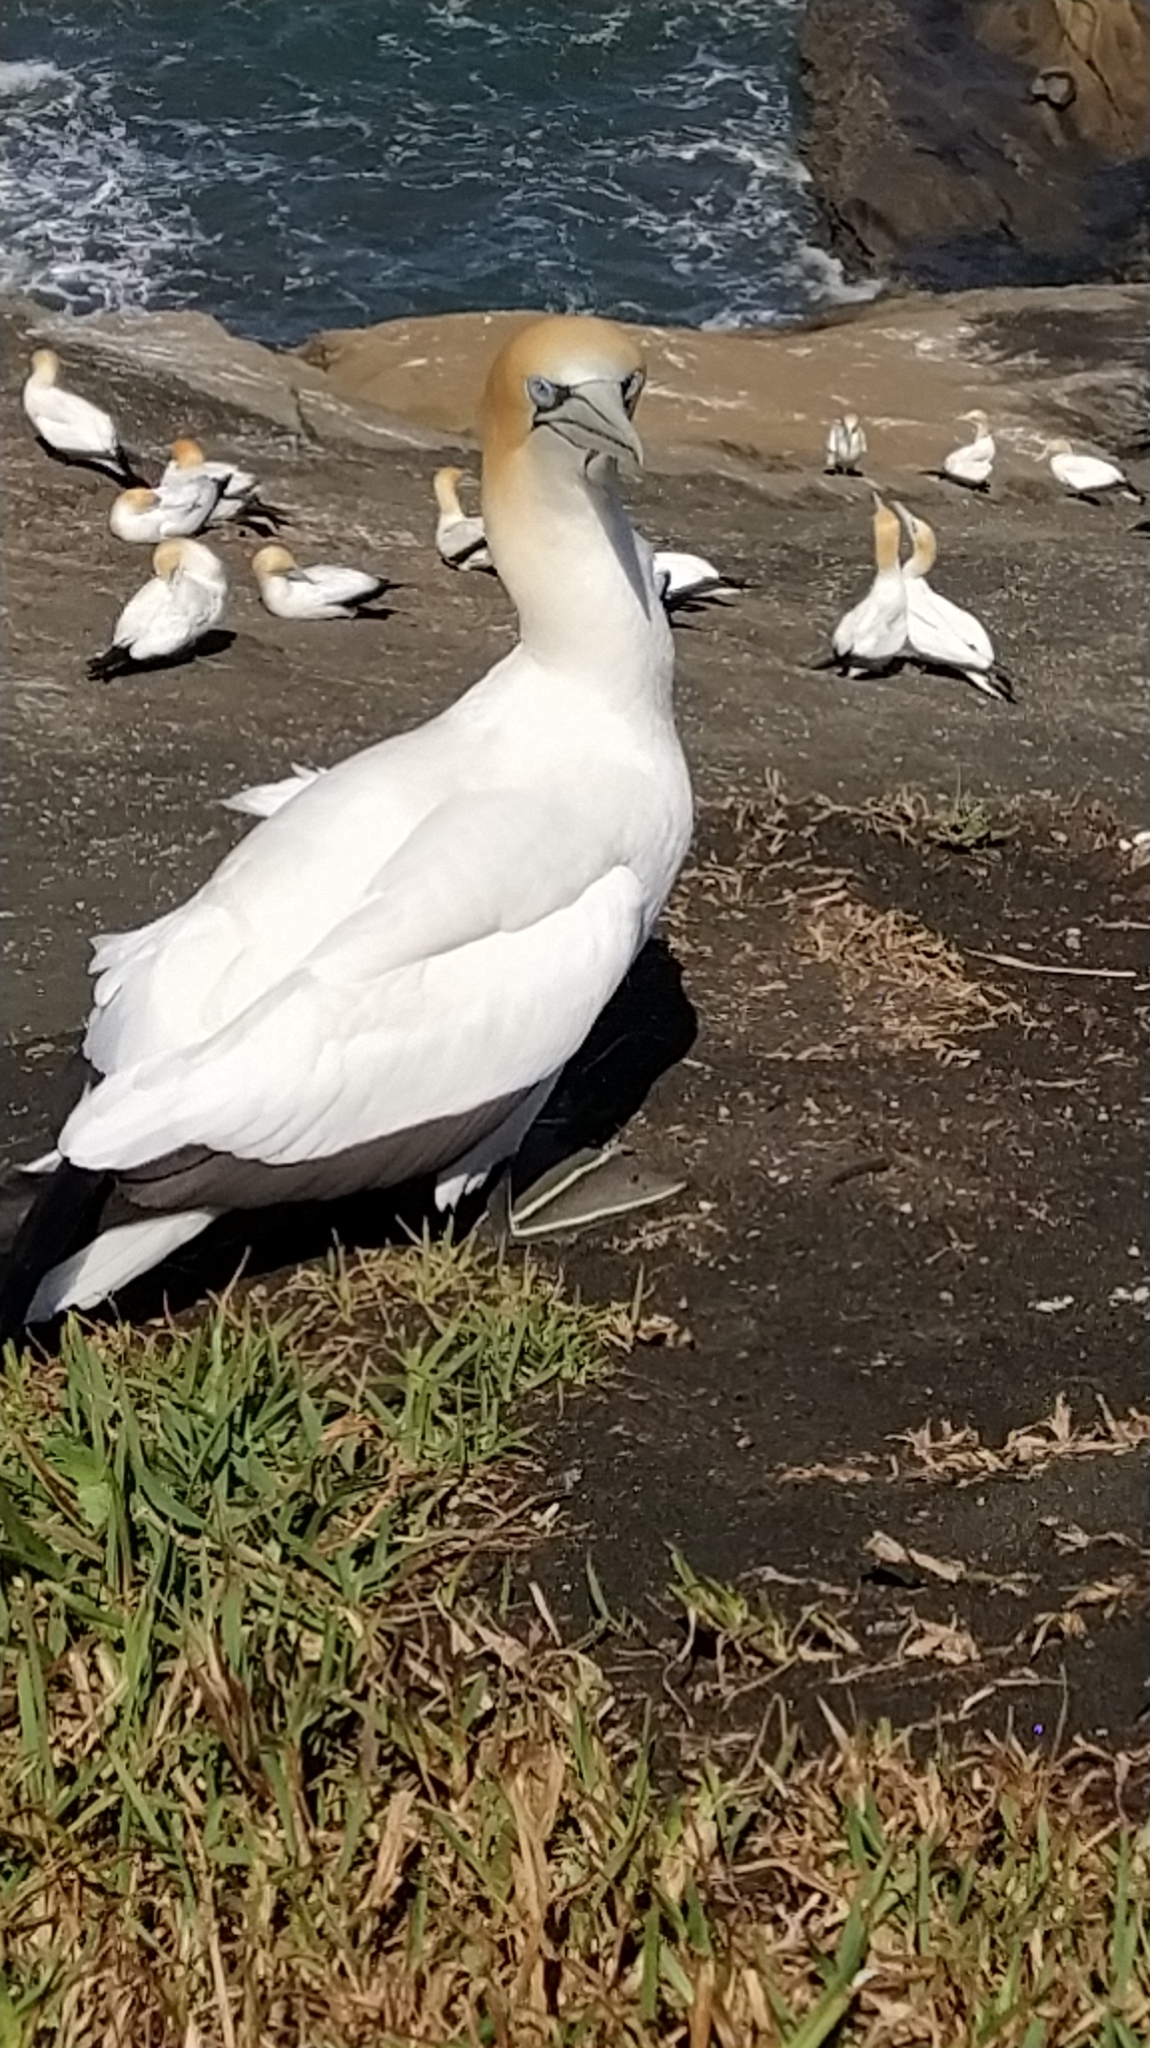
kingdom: Animalia
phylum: Chordata
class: Aves
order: Suliformes
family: Sulidae
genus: Morus
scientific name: Morus serrator
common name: Australasian gannet
